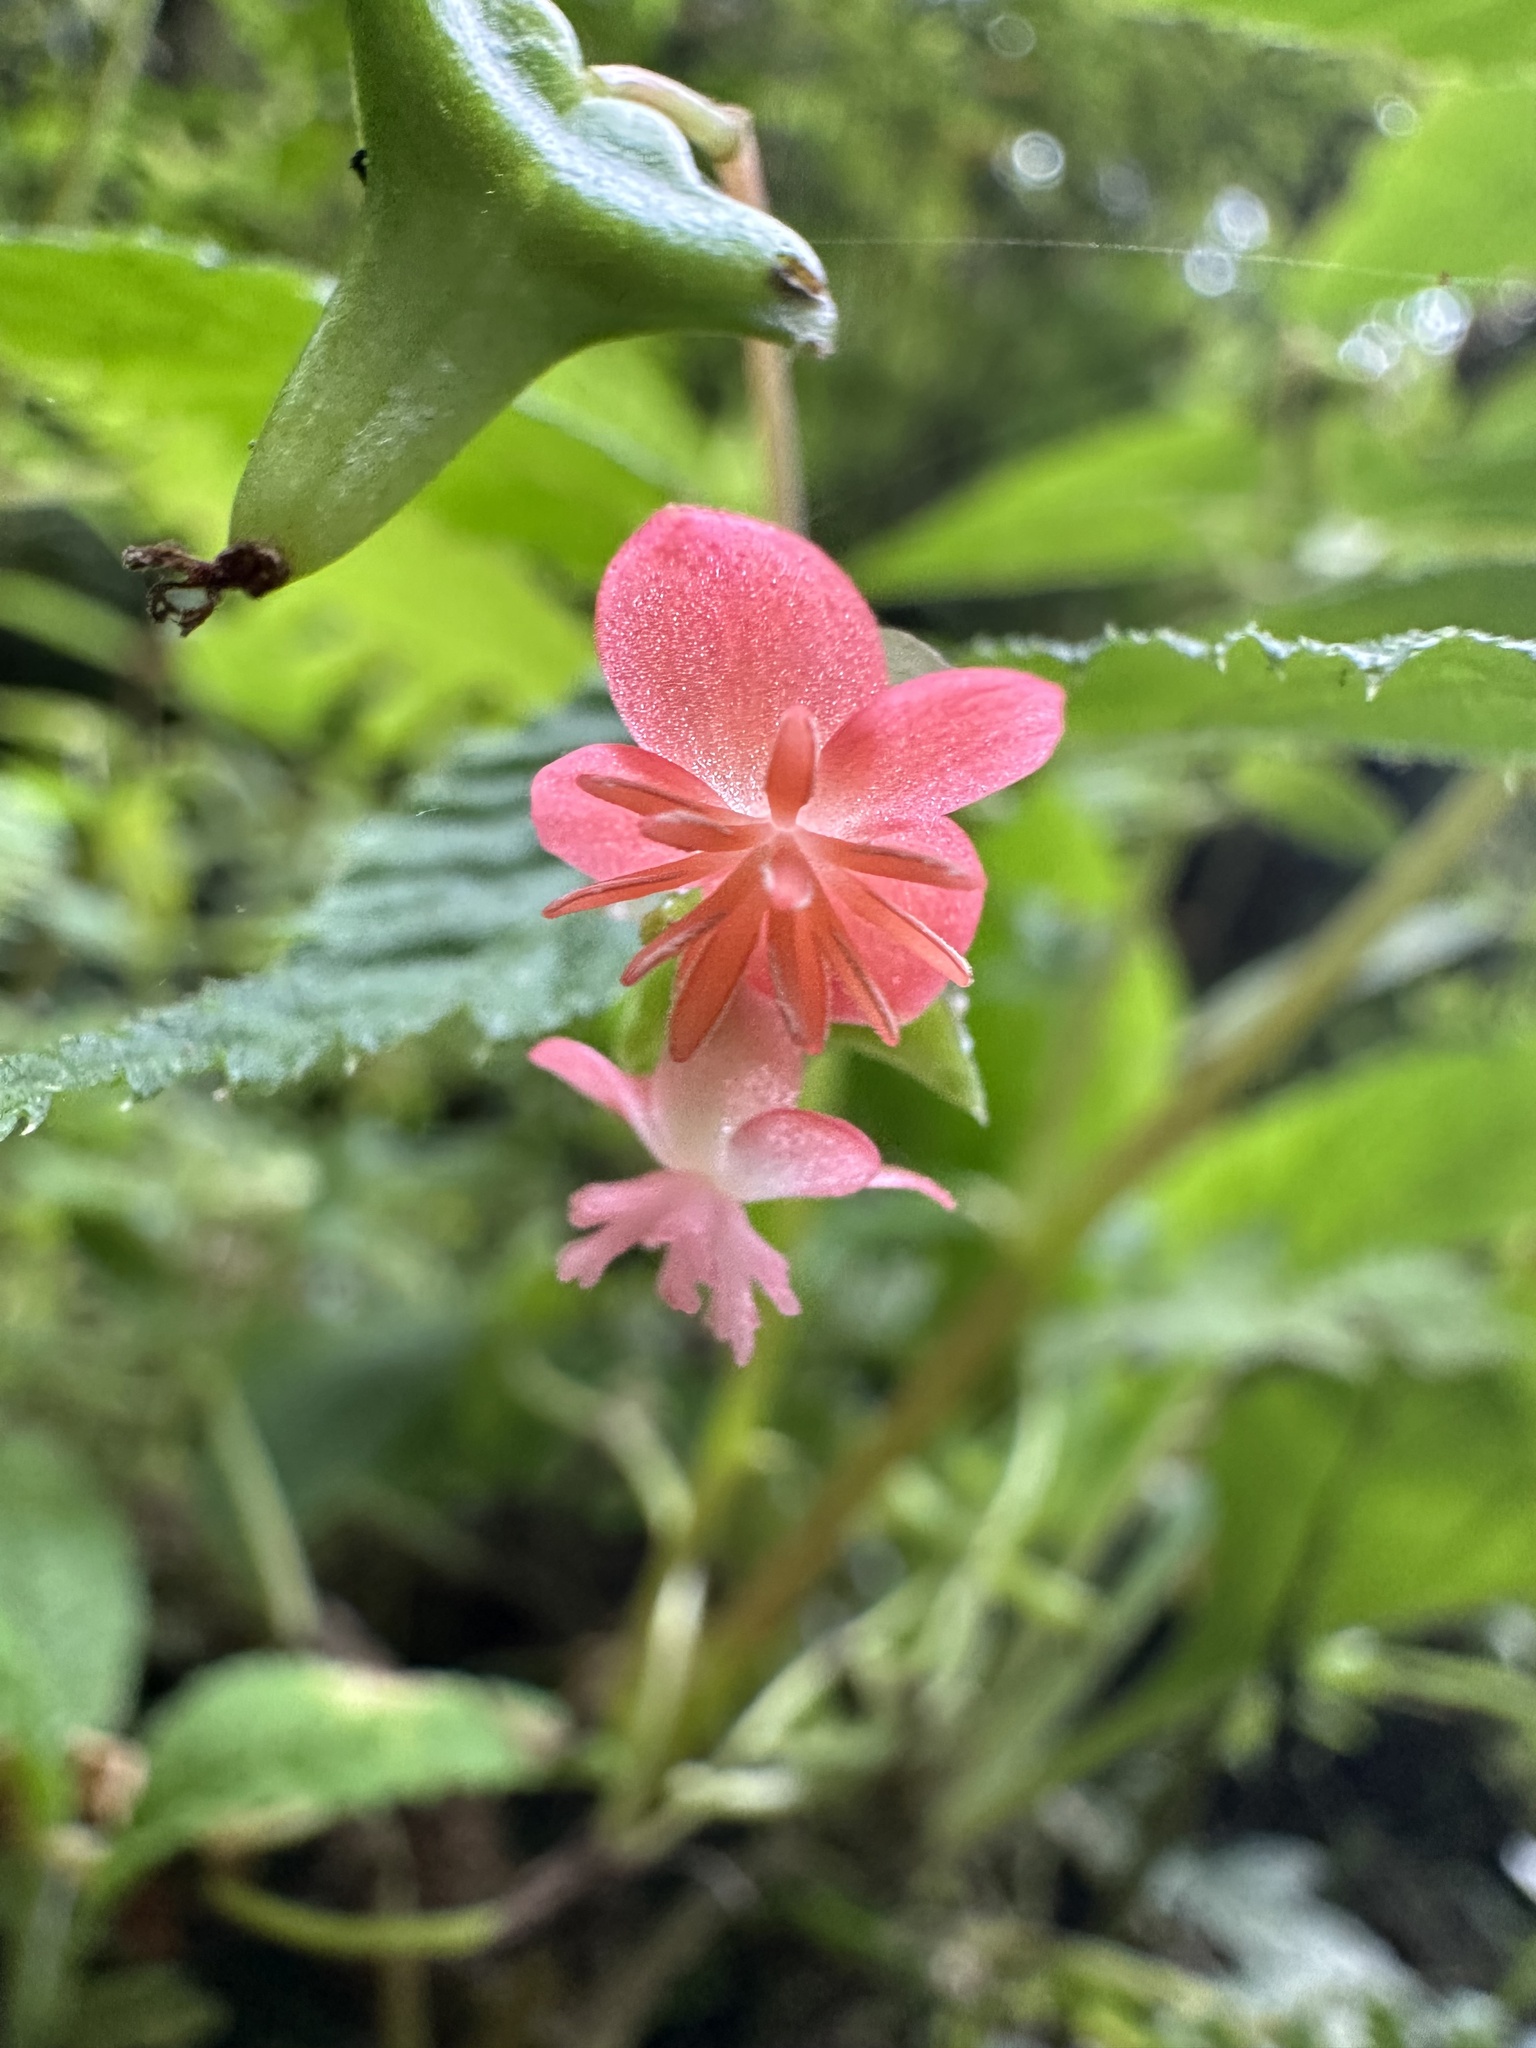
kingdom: Plantae
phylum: Tracheophyta
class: Magnoliopsida
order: Cucurbitales
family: Begoniaceae
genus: Begonia
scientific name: Begonia urticae
